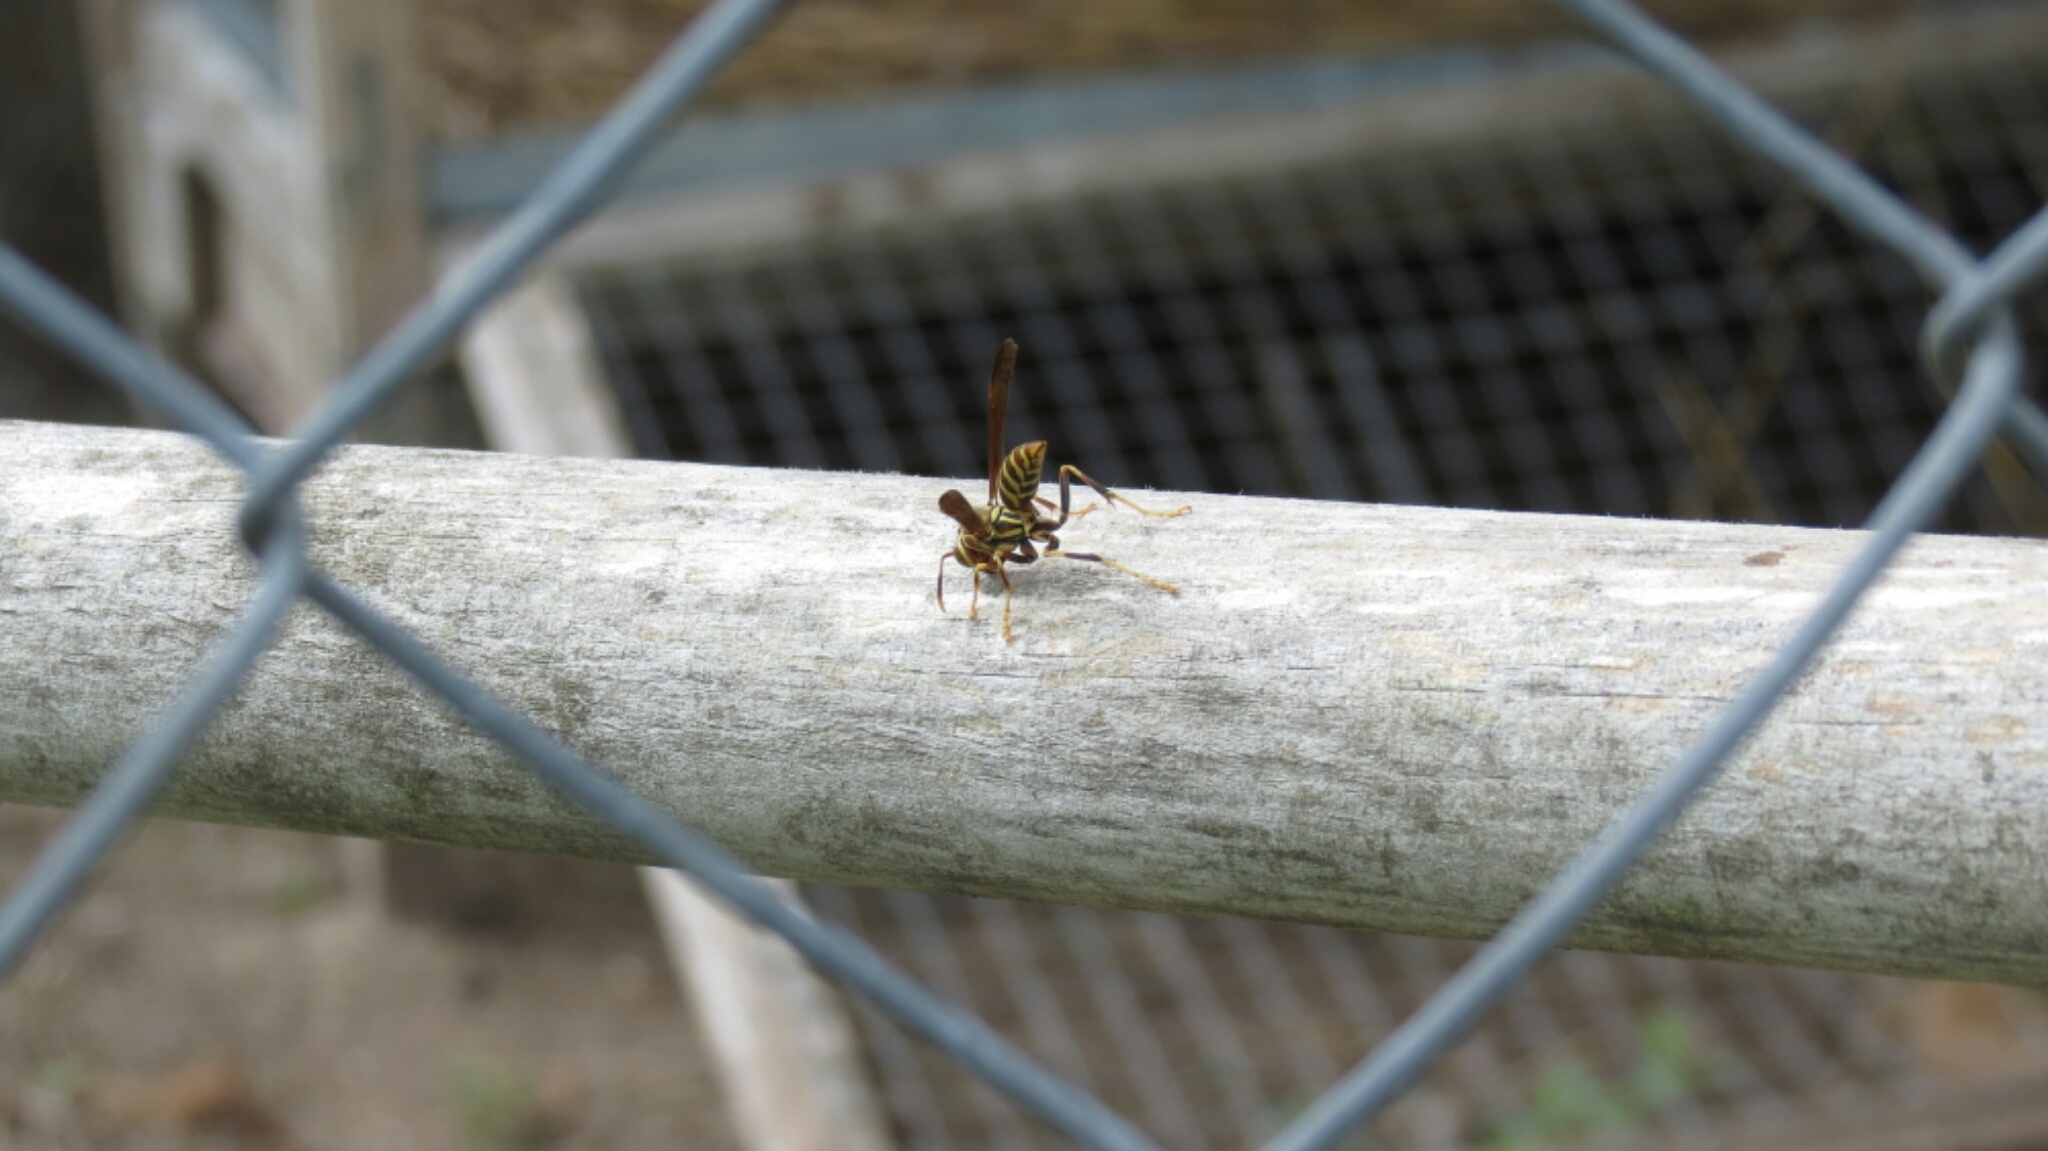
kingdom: Animalia
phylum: Arthropoda
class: Insecta
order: Hymenoptera
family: Eumenidae
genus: Polistes
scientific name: Polistes exclamans
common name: Paper wasp
